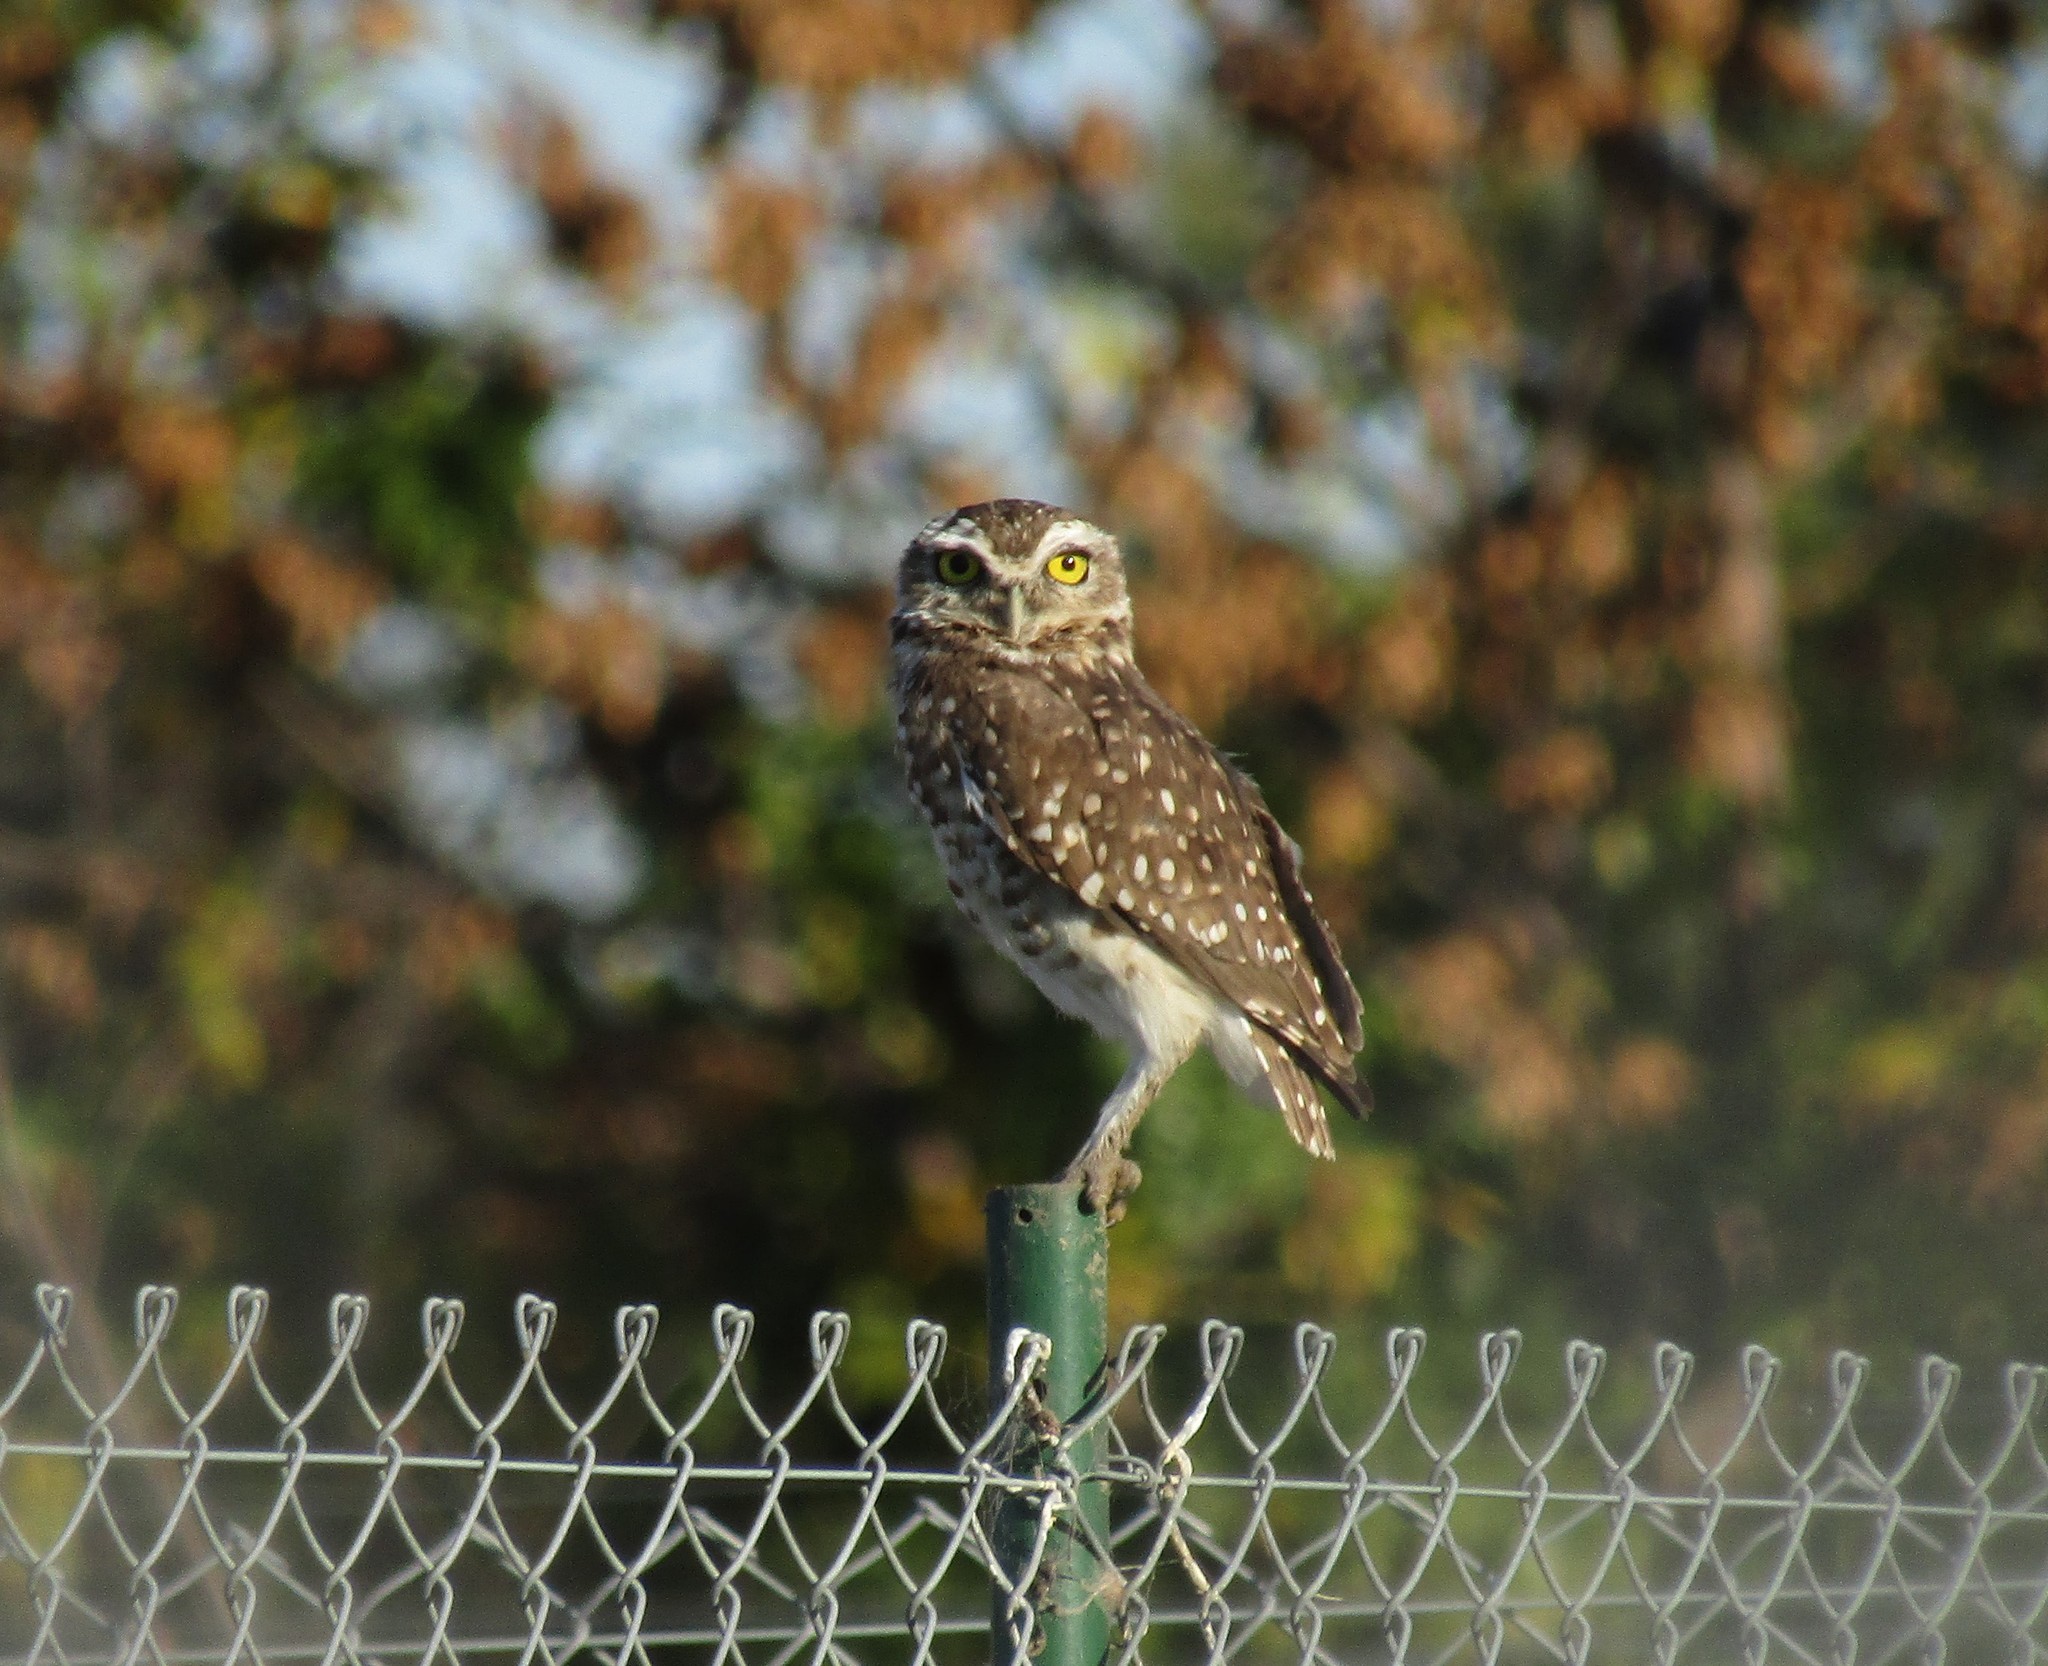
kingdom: Animalia
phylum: Chordata
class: Aves
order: Strigiformes
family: Strigidae
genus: Athene
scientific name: Athene cunicularia
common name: Burrowing owl
